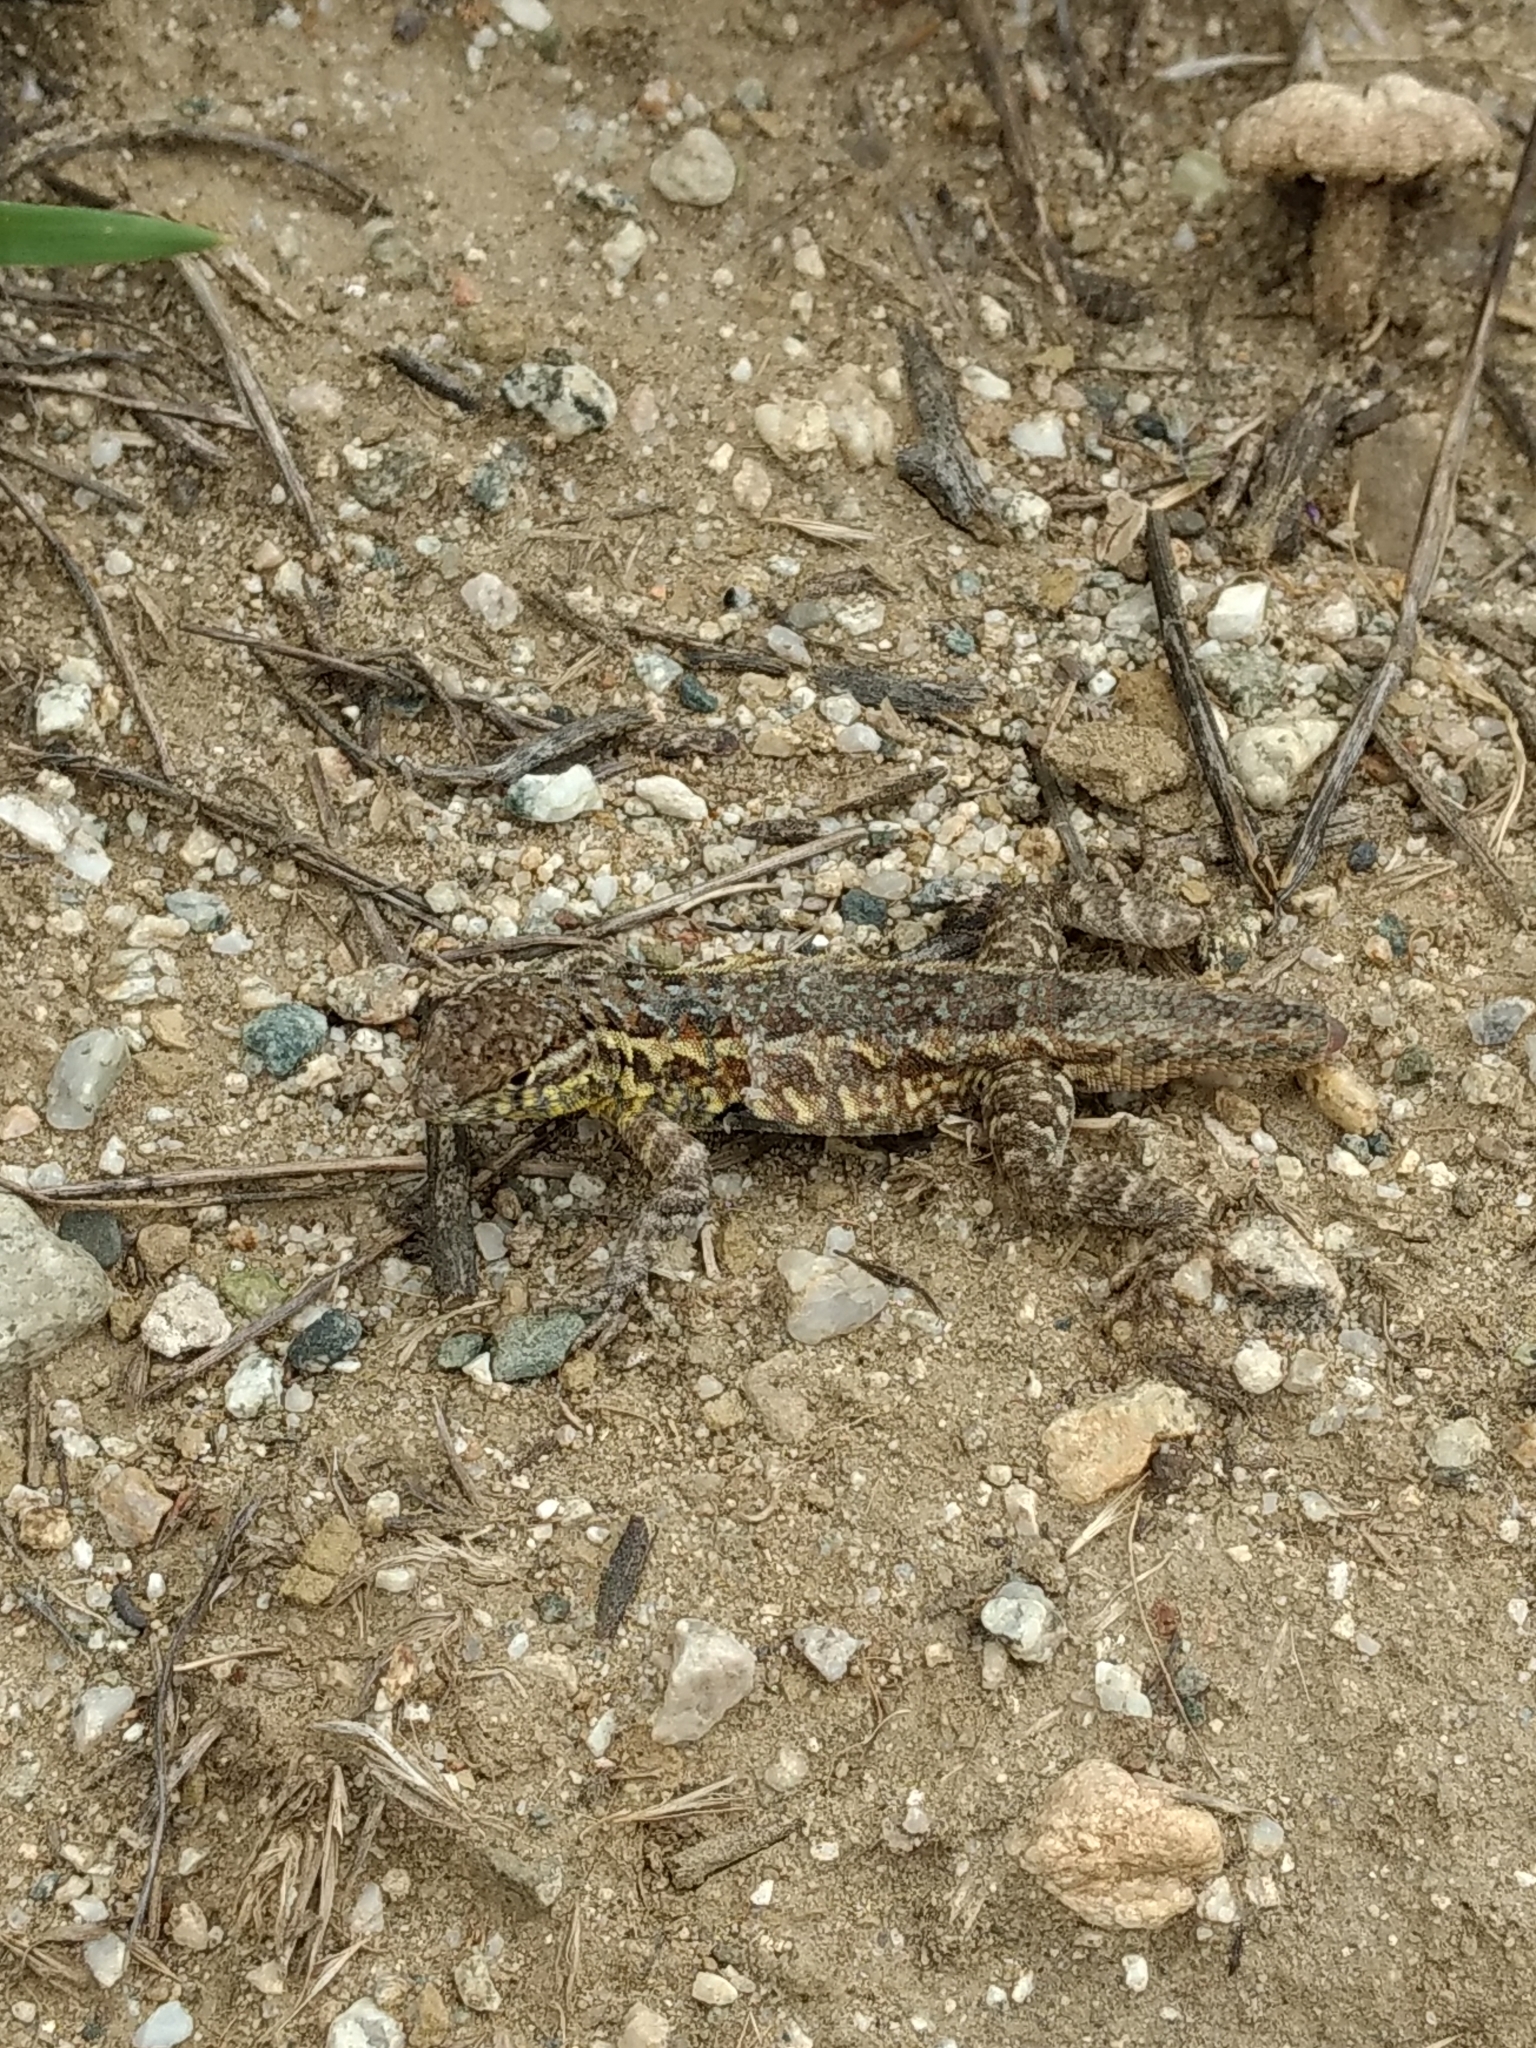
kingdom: Animalia
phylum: Chordata
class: Squamata
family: Phrynosomatidae
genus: Uta
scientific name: Uta stansburiana
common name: Side-blotched lizard
